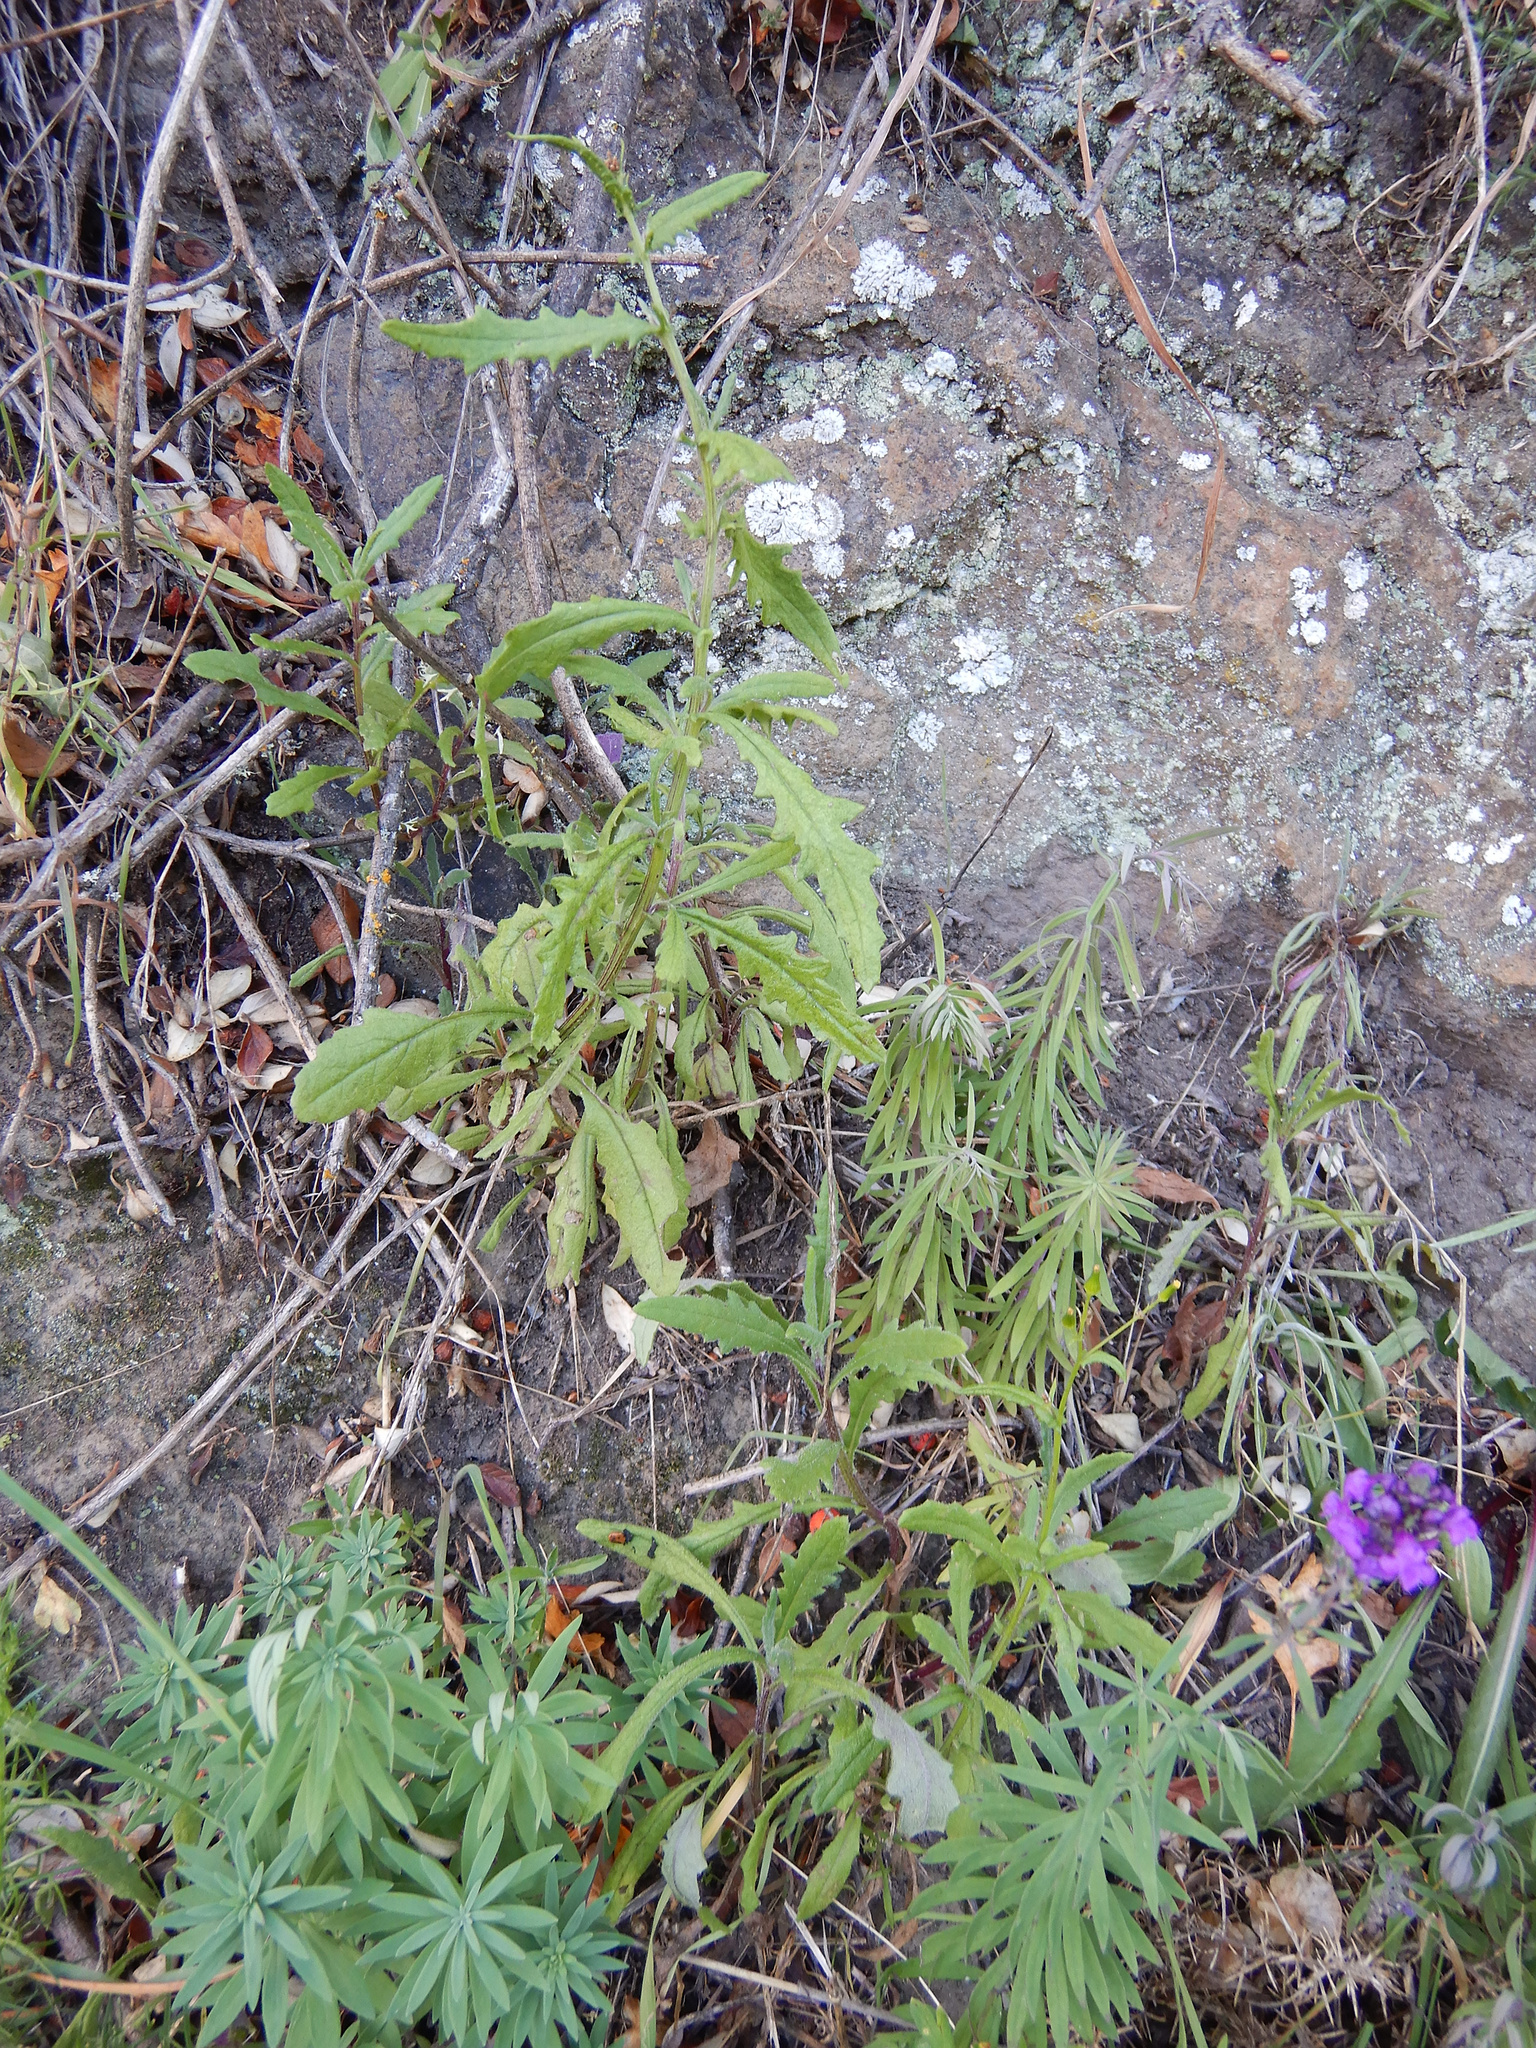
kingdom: Plantae
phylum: Tracheophyta
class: Magnoliopsida
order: Asterales
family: Asteraceae
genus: Senecio
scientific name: Senecio hispidulus
